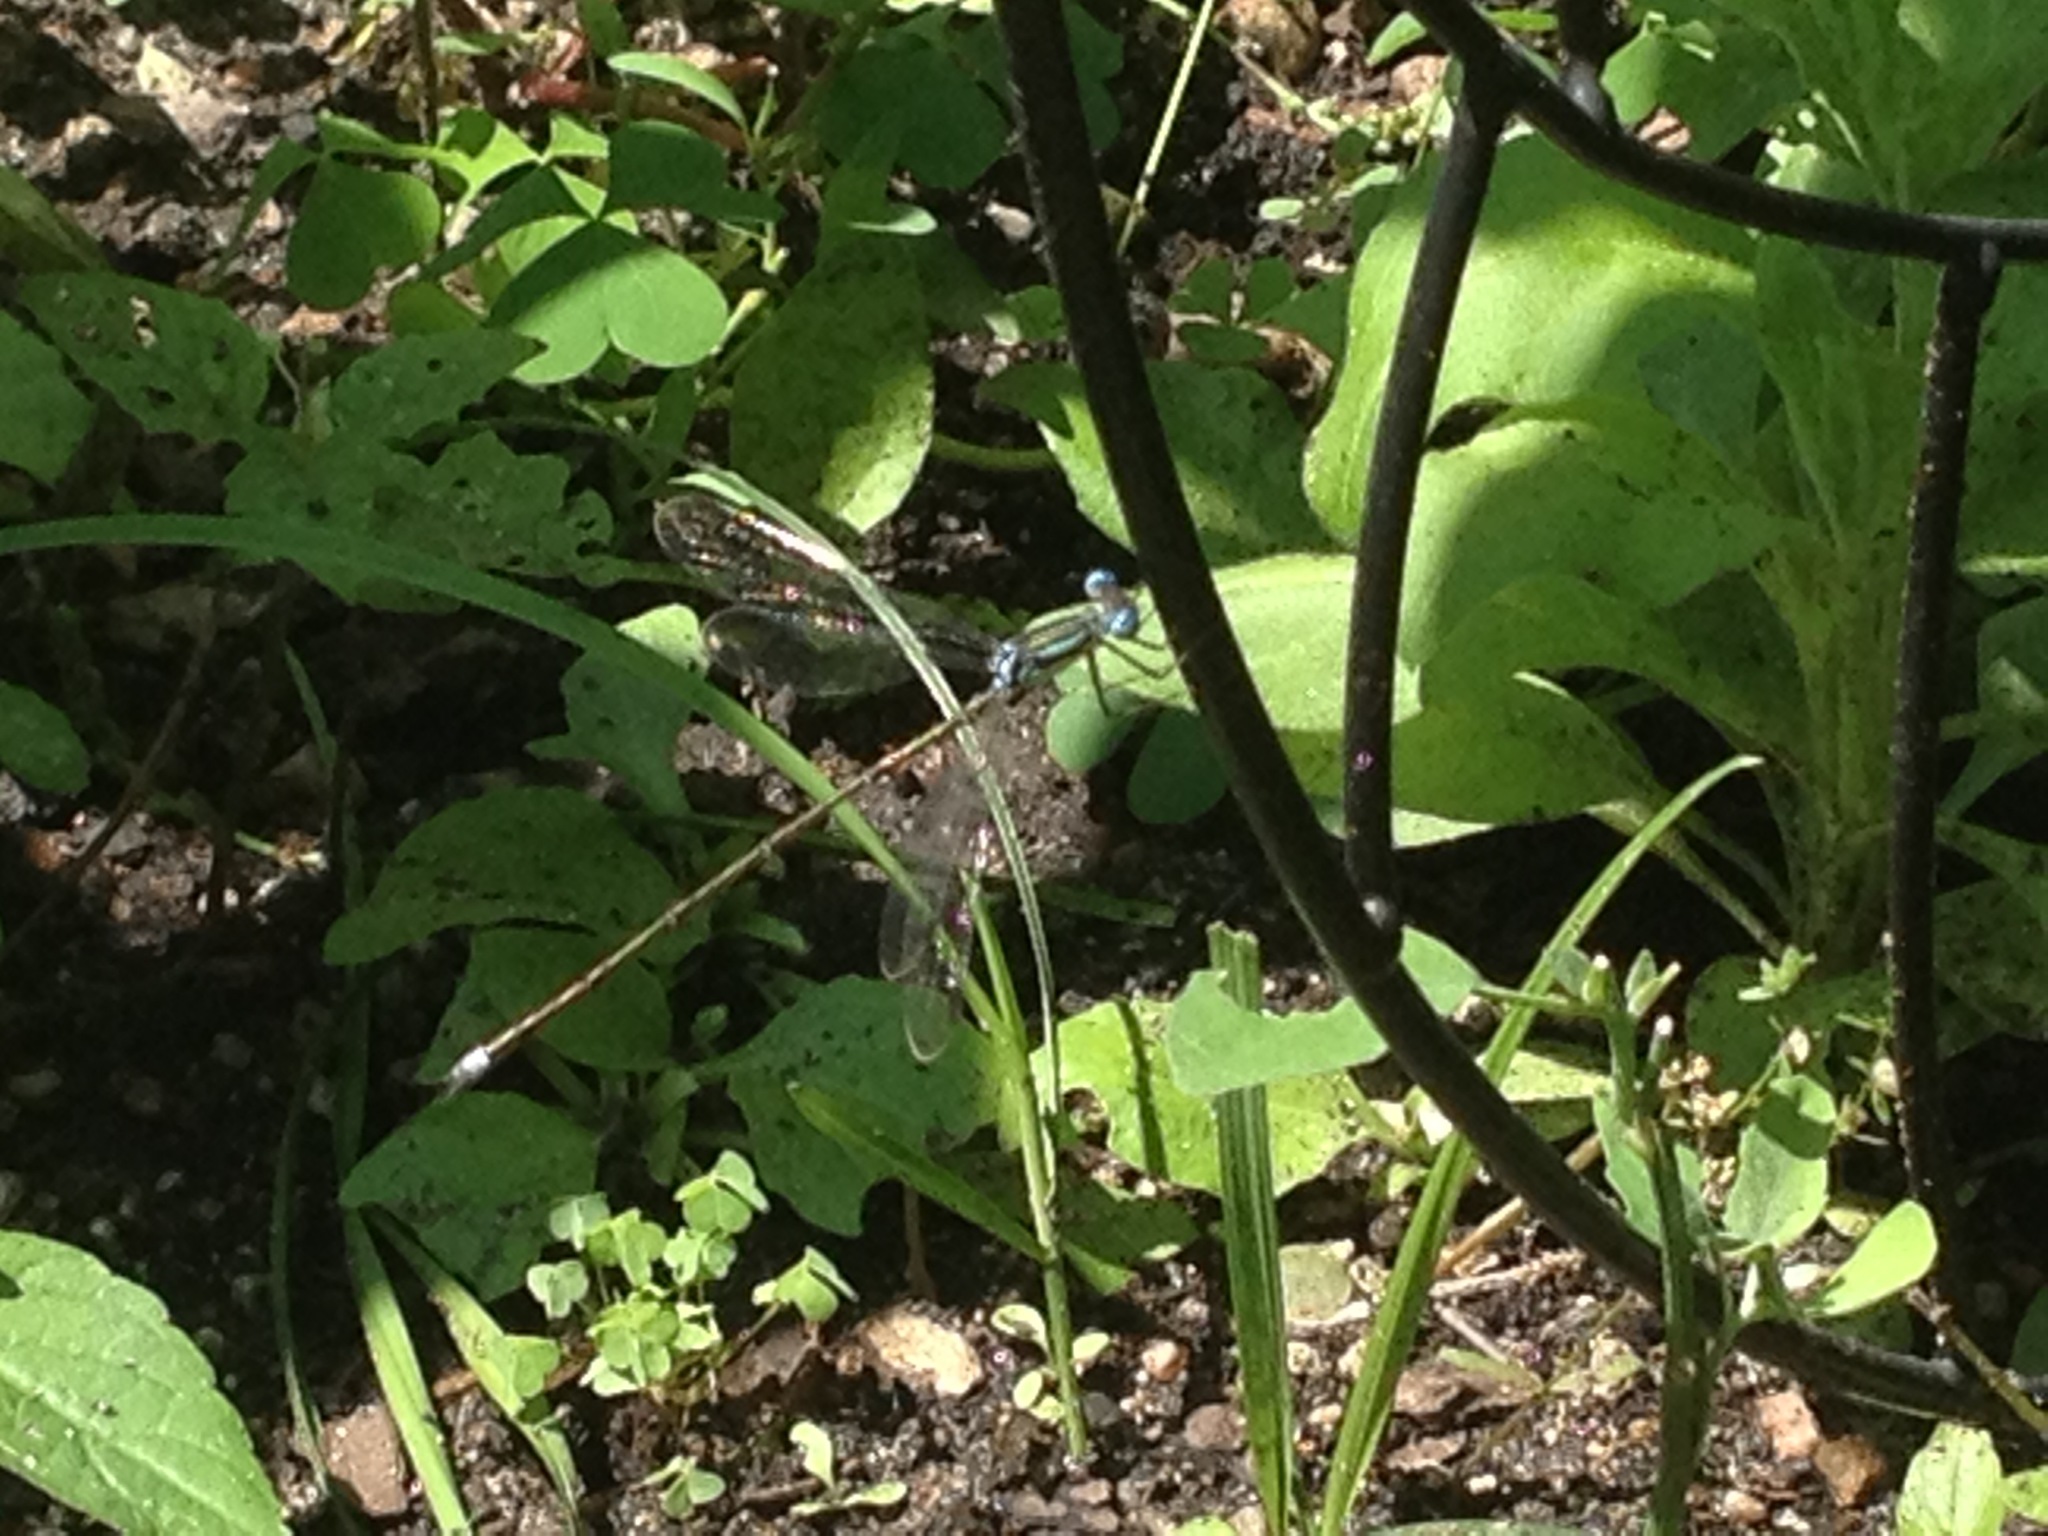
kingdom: Animalia
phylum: Arthropoda
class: Insecta
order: Odonata
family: Lestidae
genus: Lestes
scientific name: Lestes rectangularis
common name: Slender spreadwing
